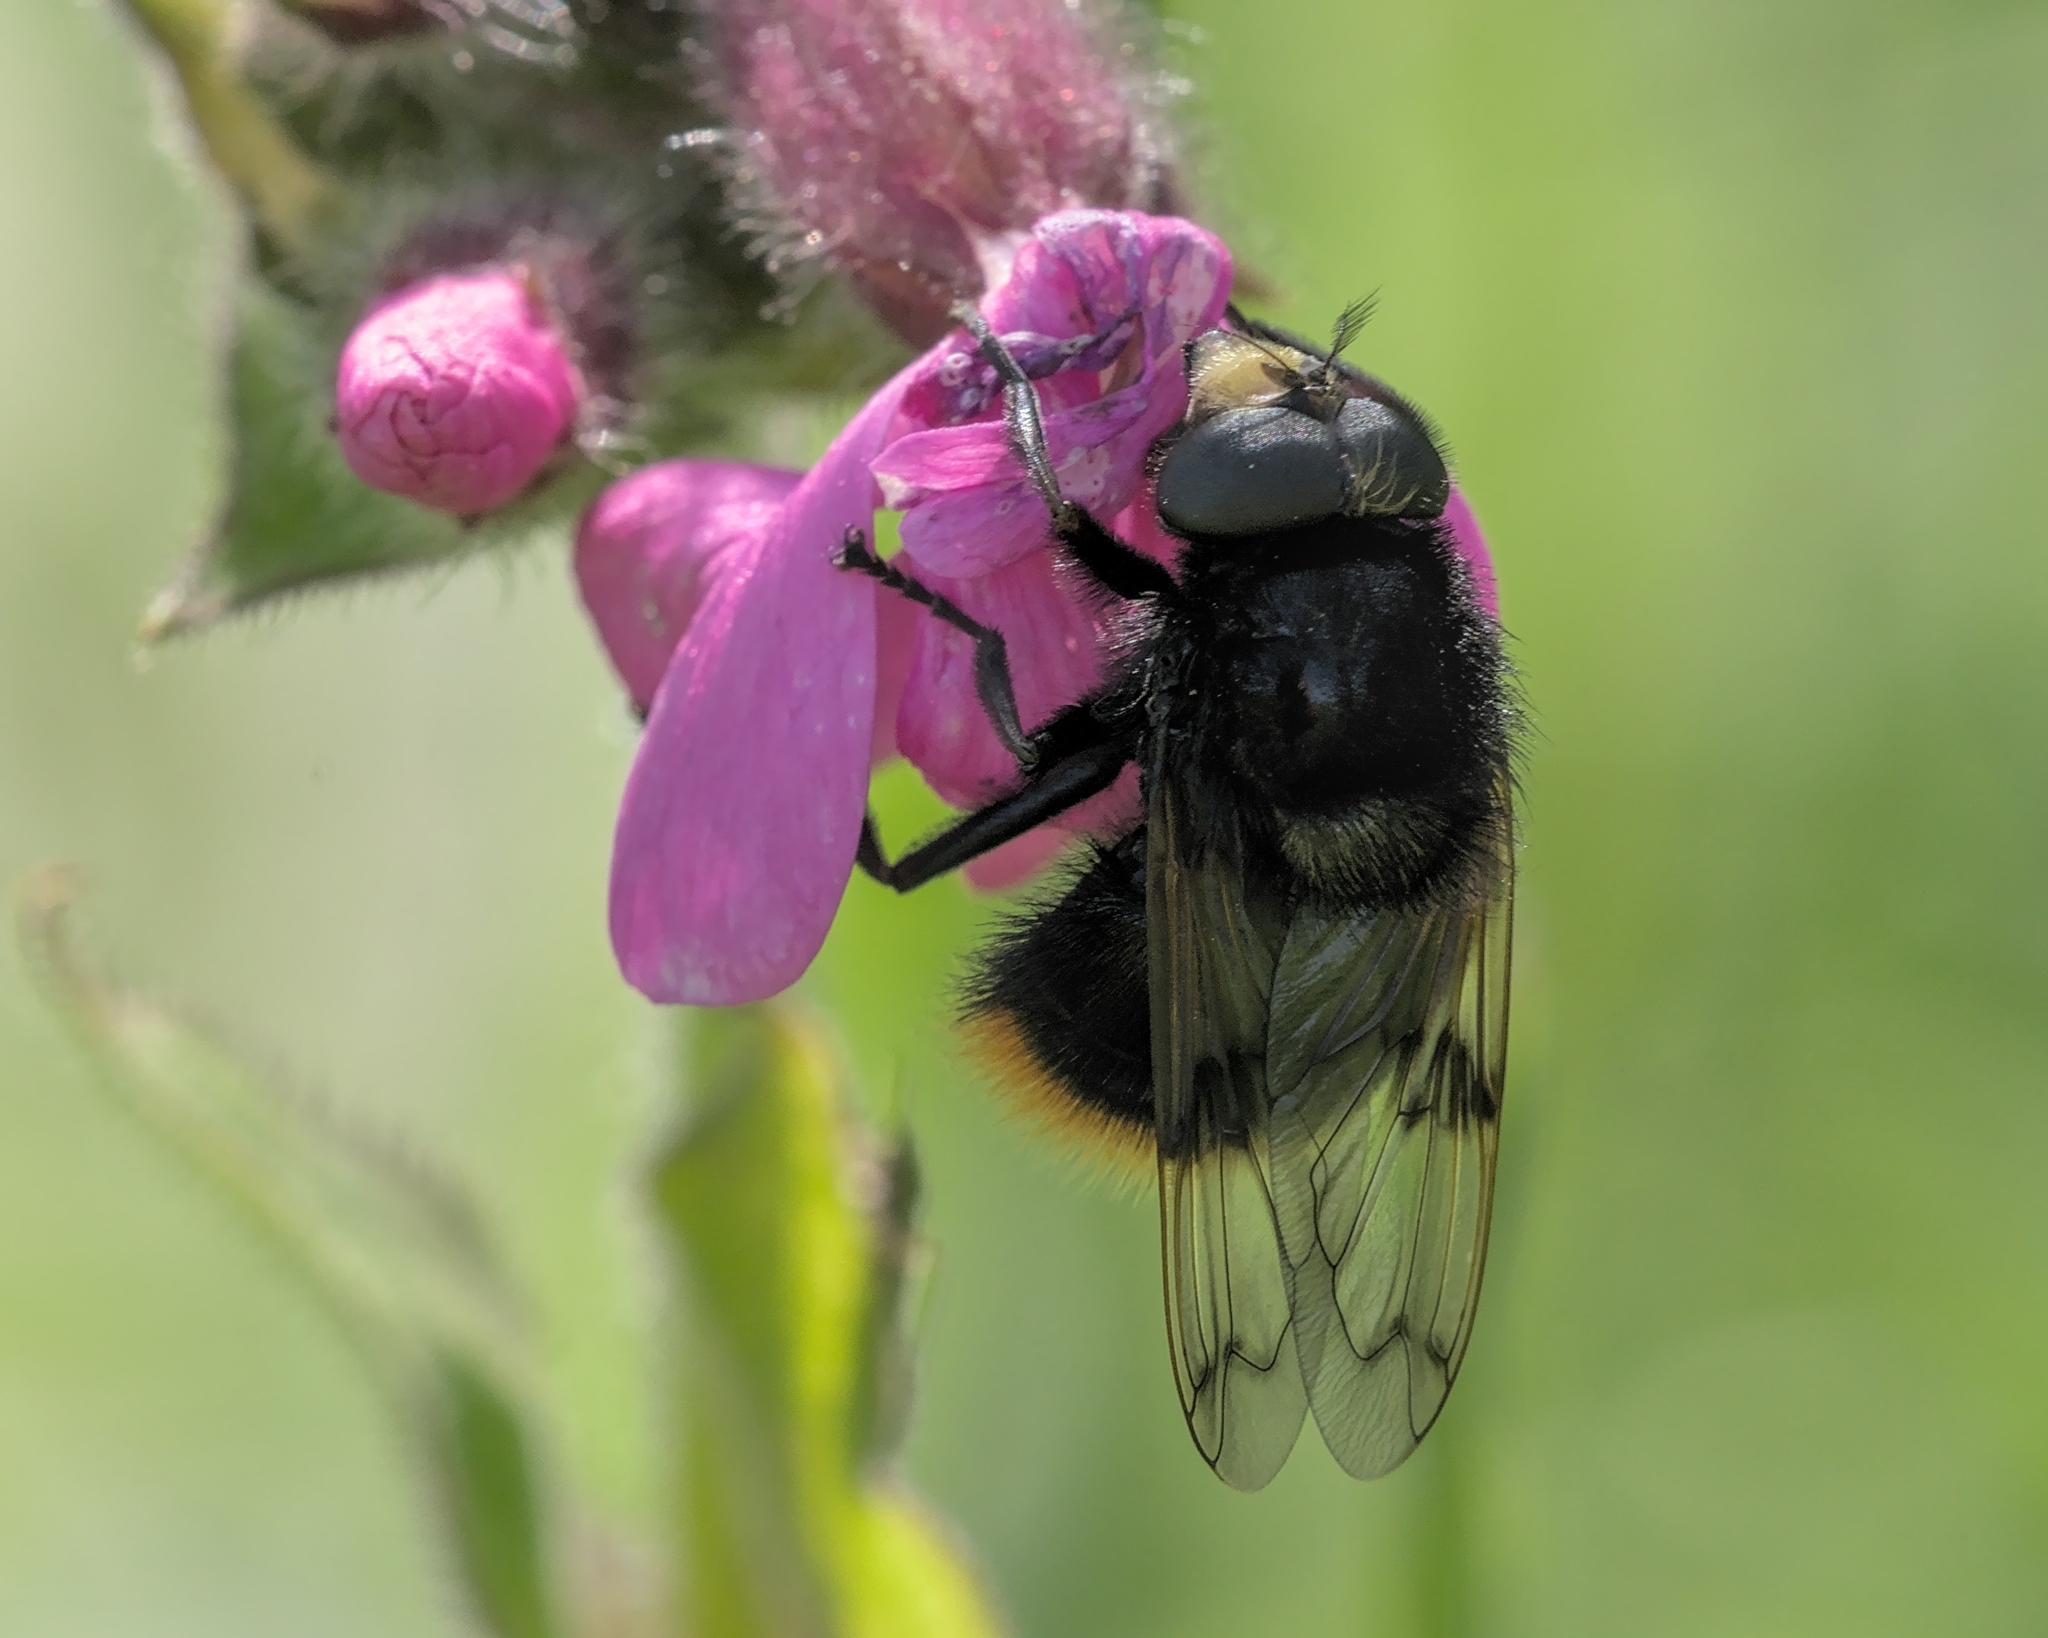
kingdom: Animalia
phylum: Arthropoda
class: Insecta
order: Diptera
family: Syrphidae
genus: Volucella
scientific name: Volucella bombylans
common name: Bumble bee hover fly
